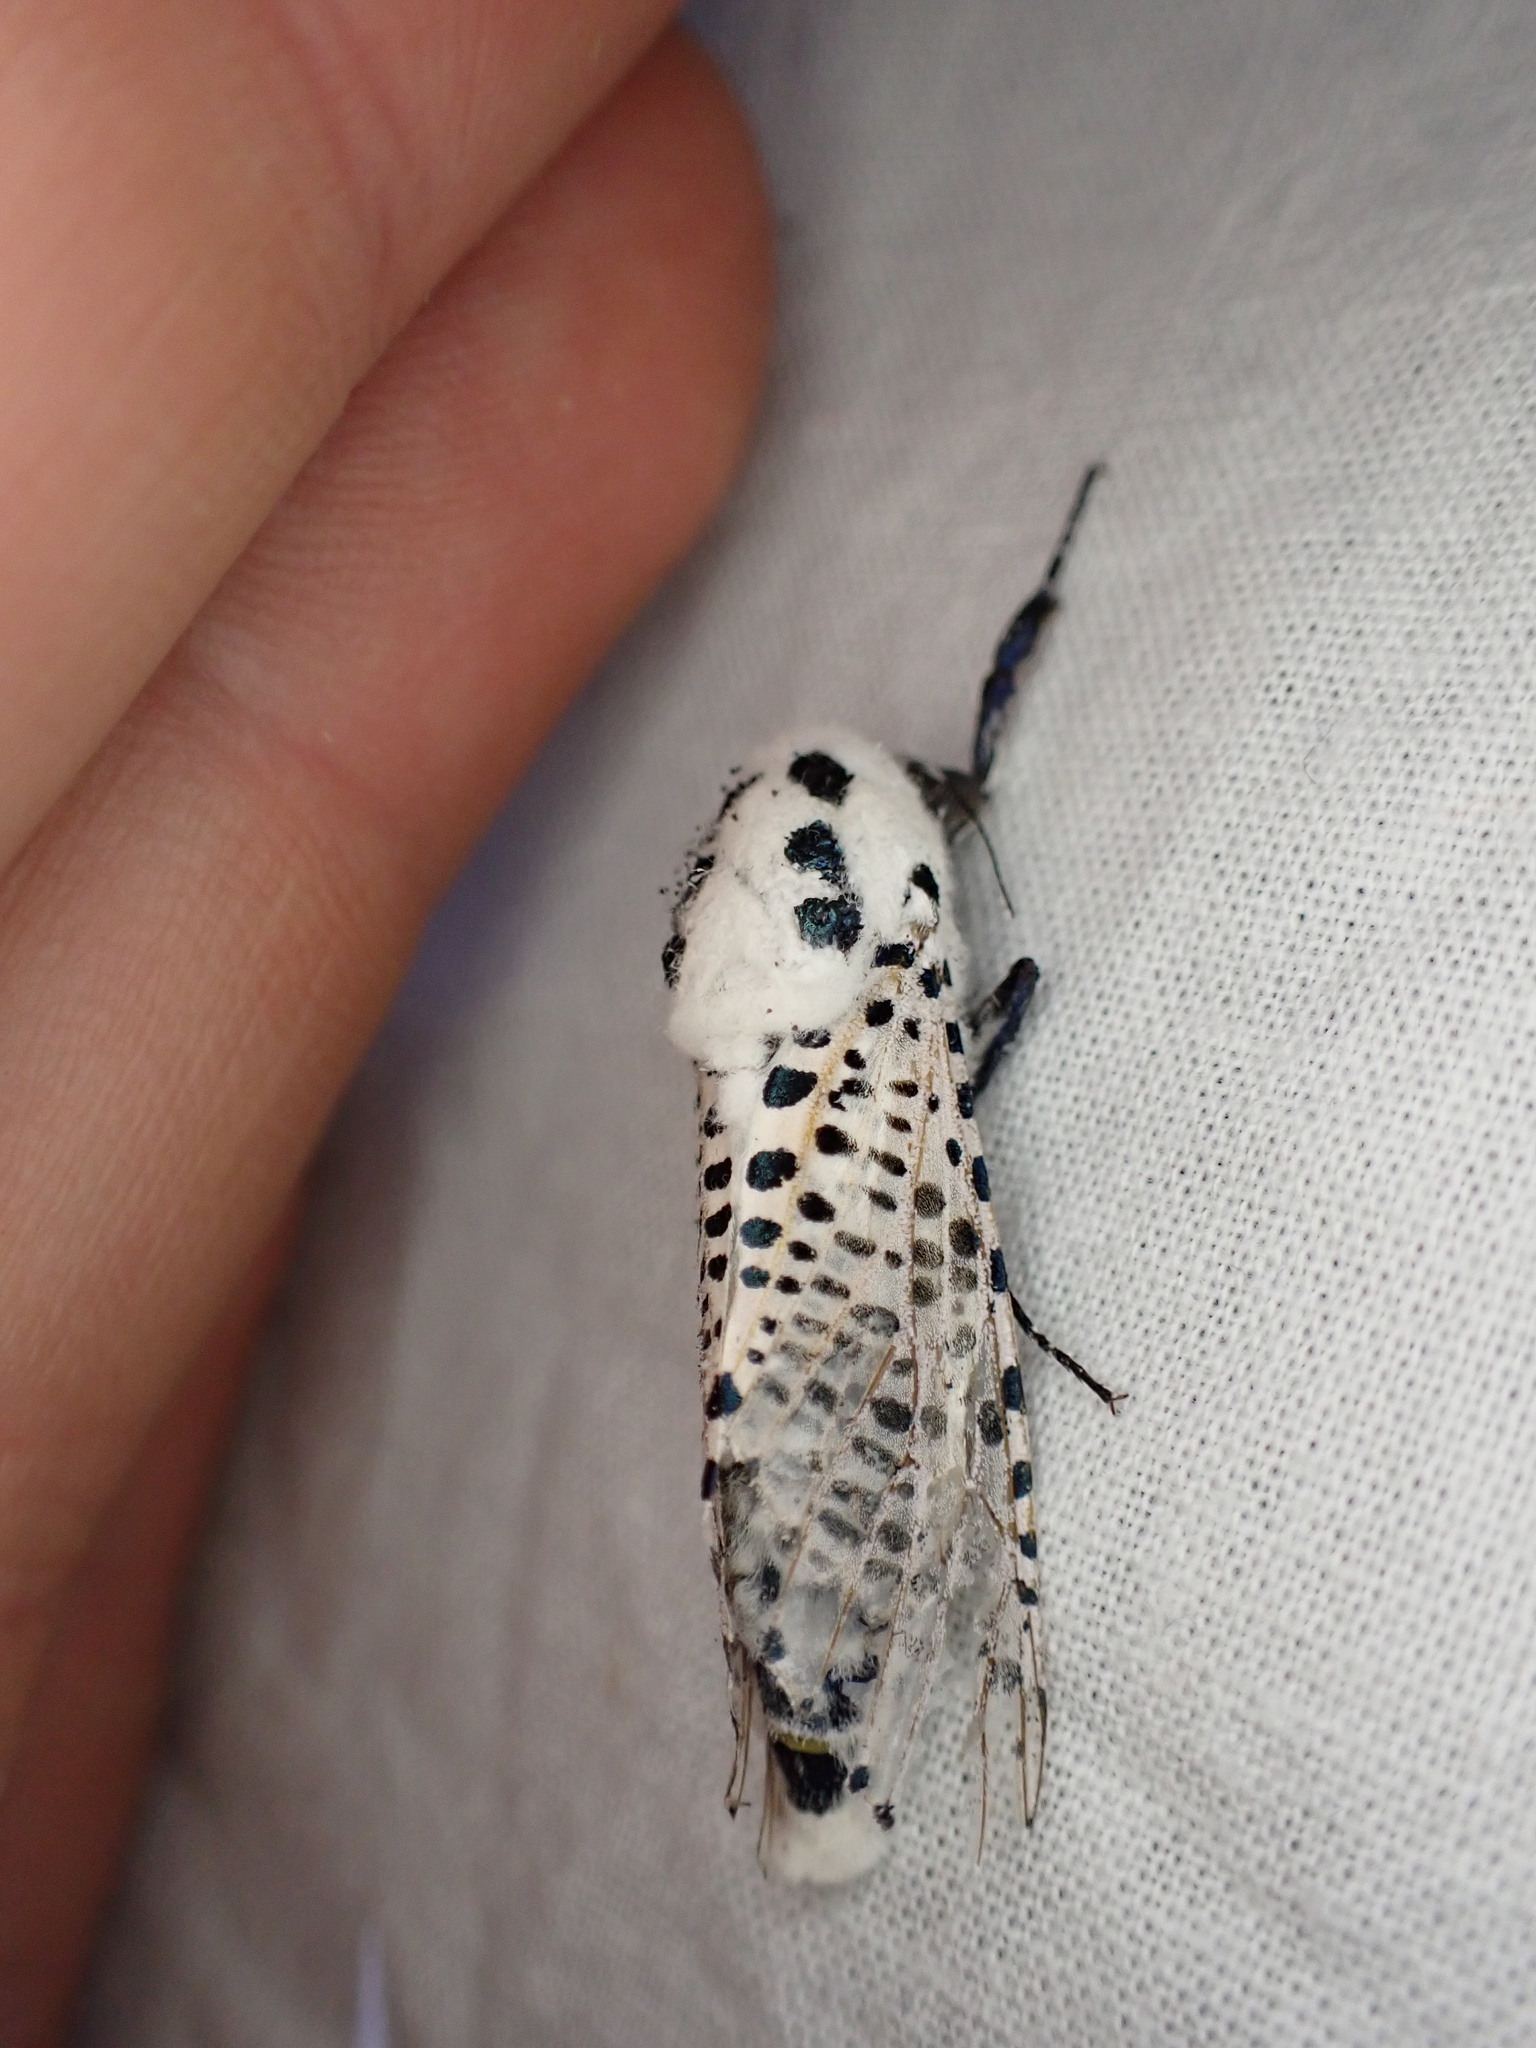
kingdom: Animalia
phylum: Arthropoda
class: Insecta
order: Lepidoptera
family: Cossidae
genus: Zeuzera
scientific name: Zeuzera pyrina
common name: Leopard moth
